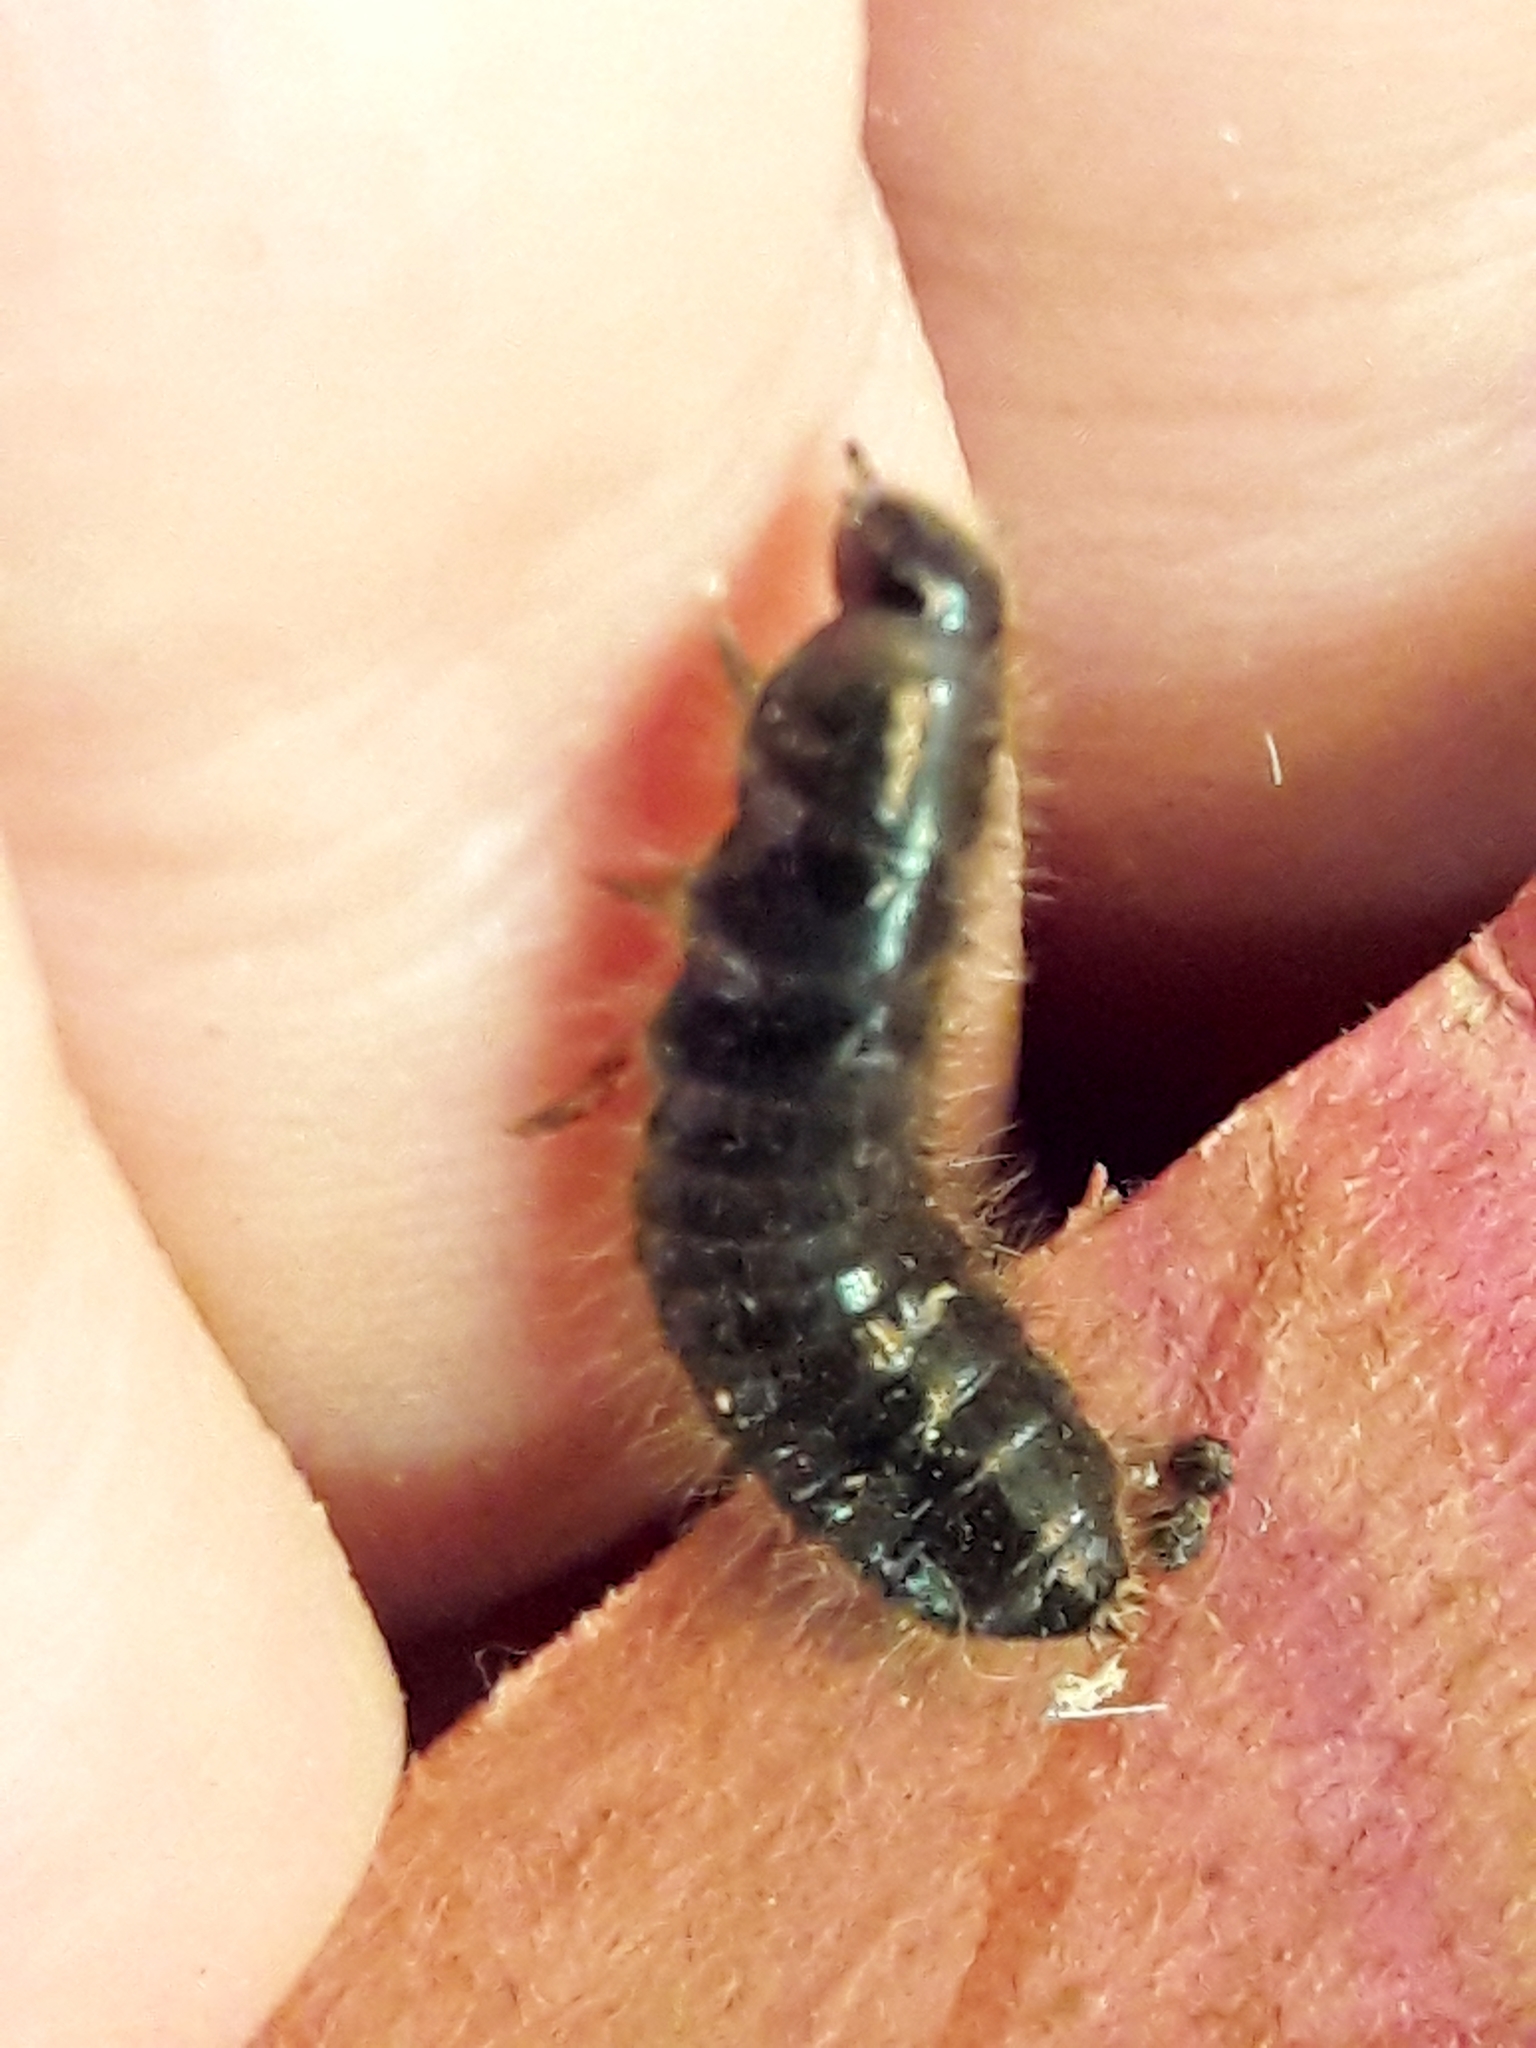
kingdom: Animalia
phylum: Arthropoda
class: Insecta
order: Coleoptera
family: Tenebrionidae
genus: Lagria
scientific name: Lagria villosa
